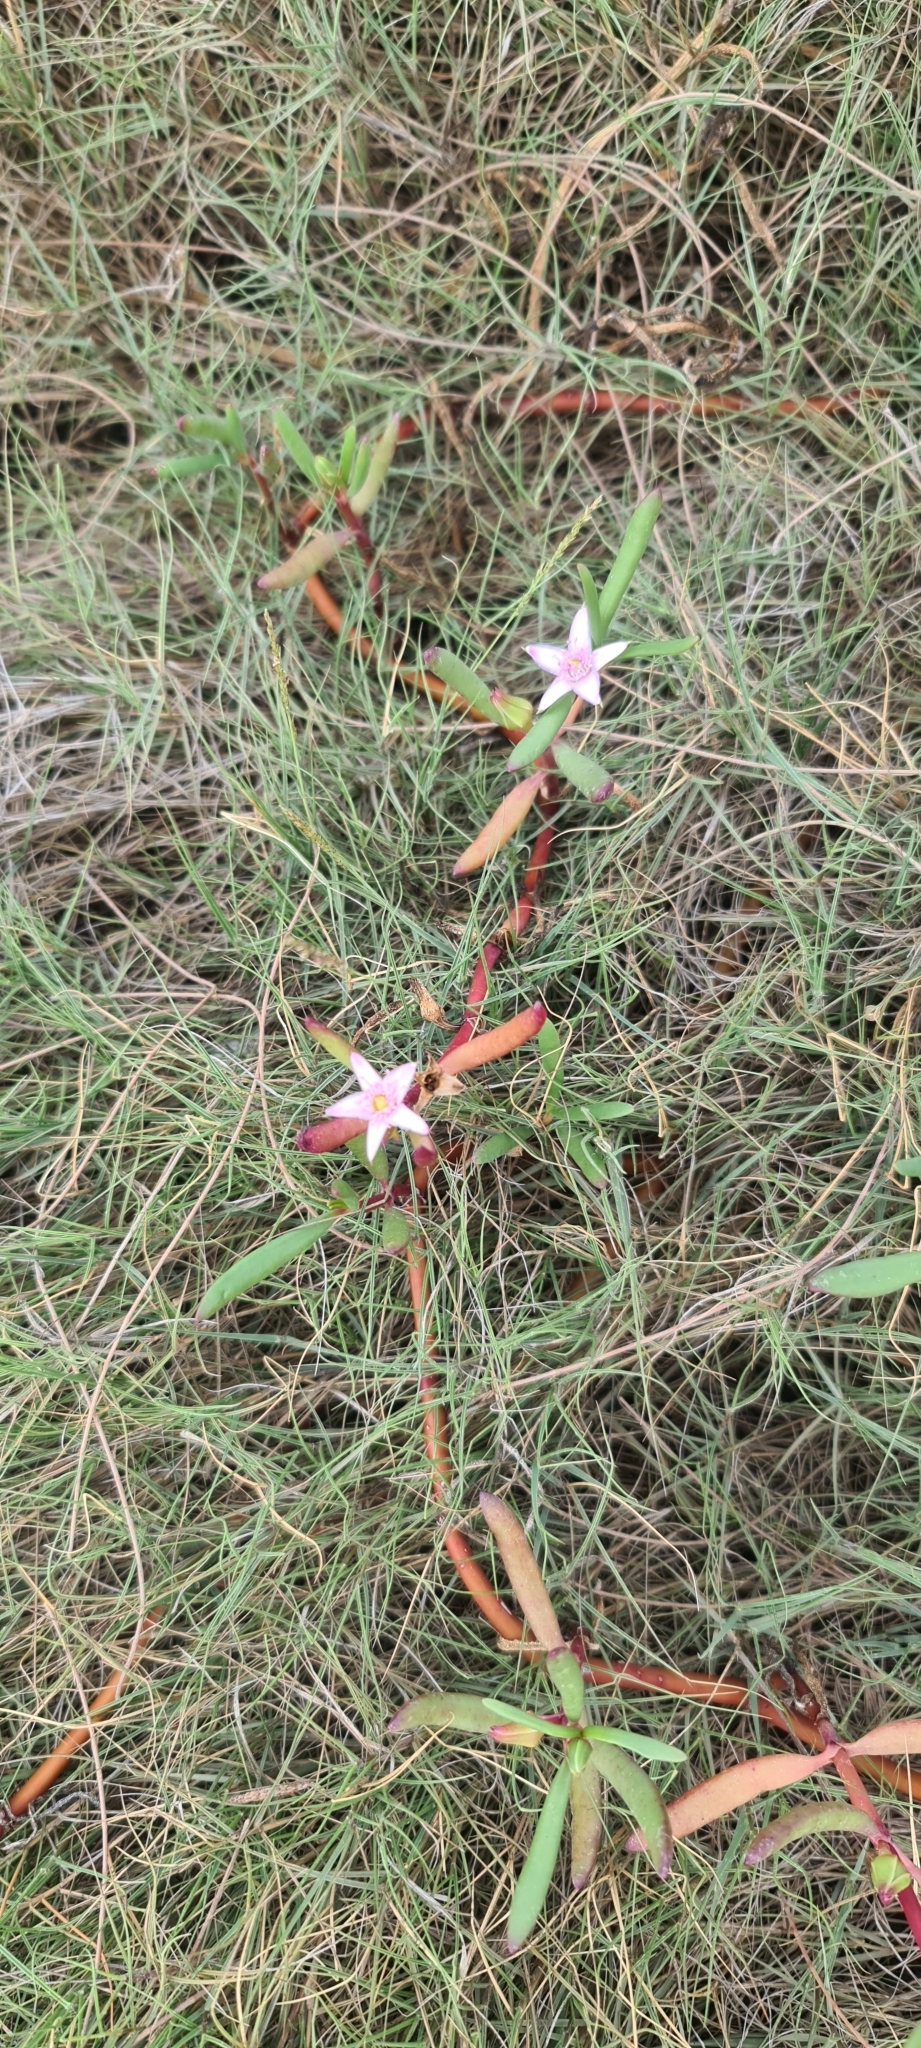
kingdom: Plantae
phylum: Tracheophyta
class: Magnoliopsida
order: Caryophyllales
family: Aizoaceae
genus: Sesuvium
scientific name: Sesuvium portulacastrum
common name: Sea-purslane
